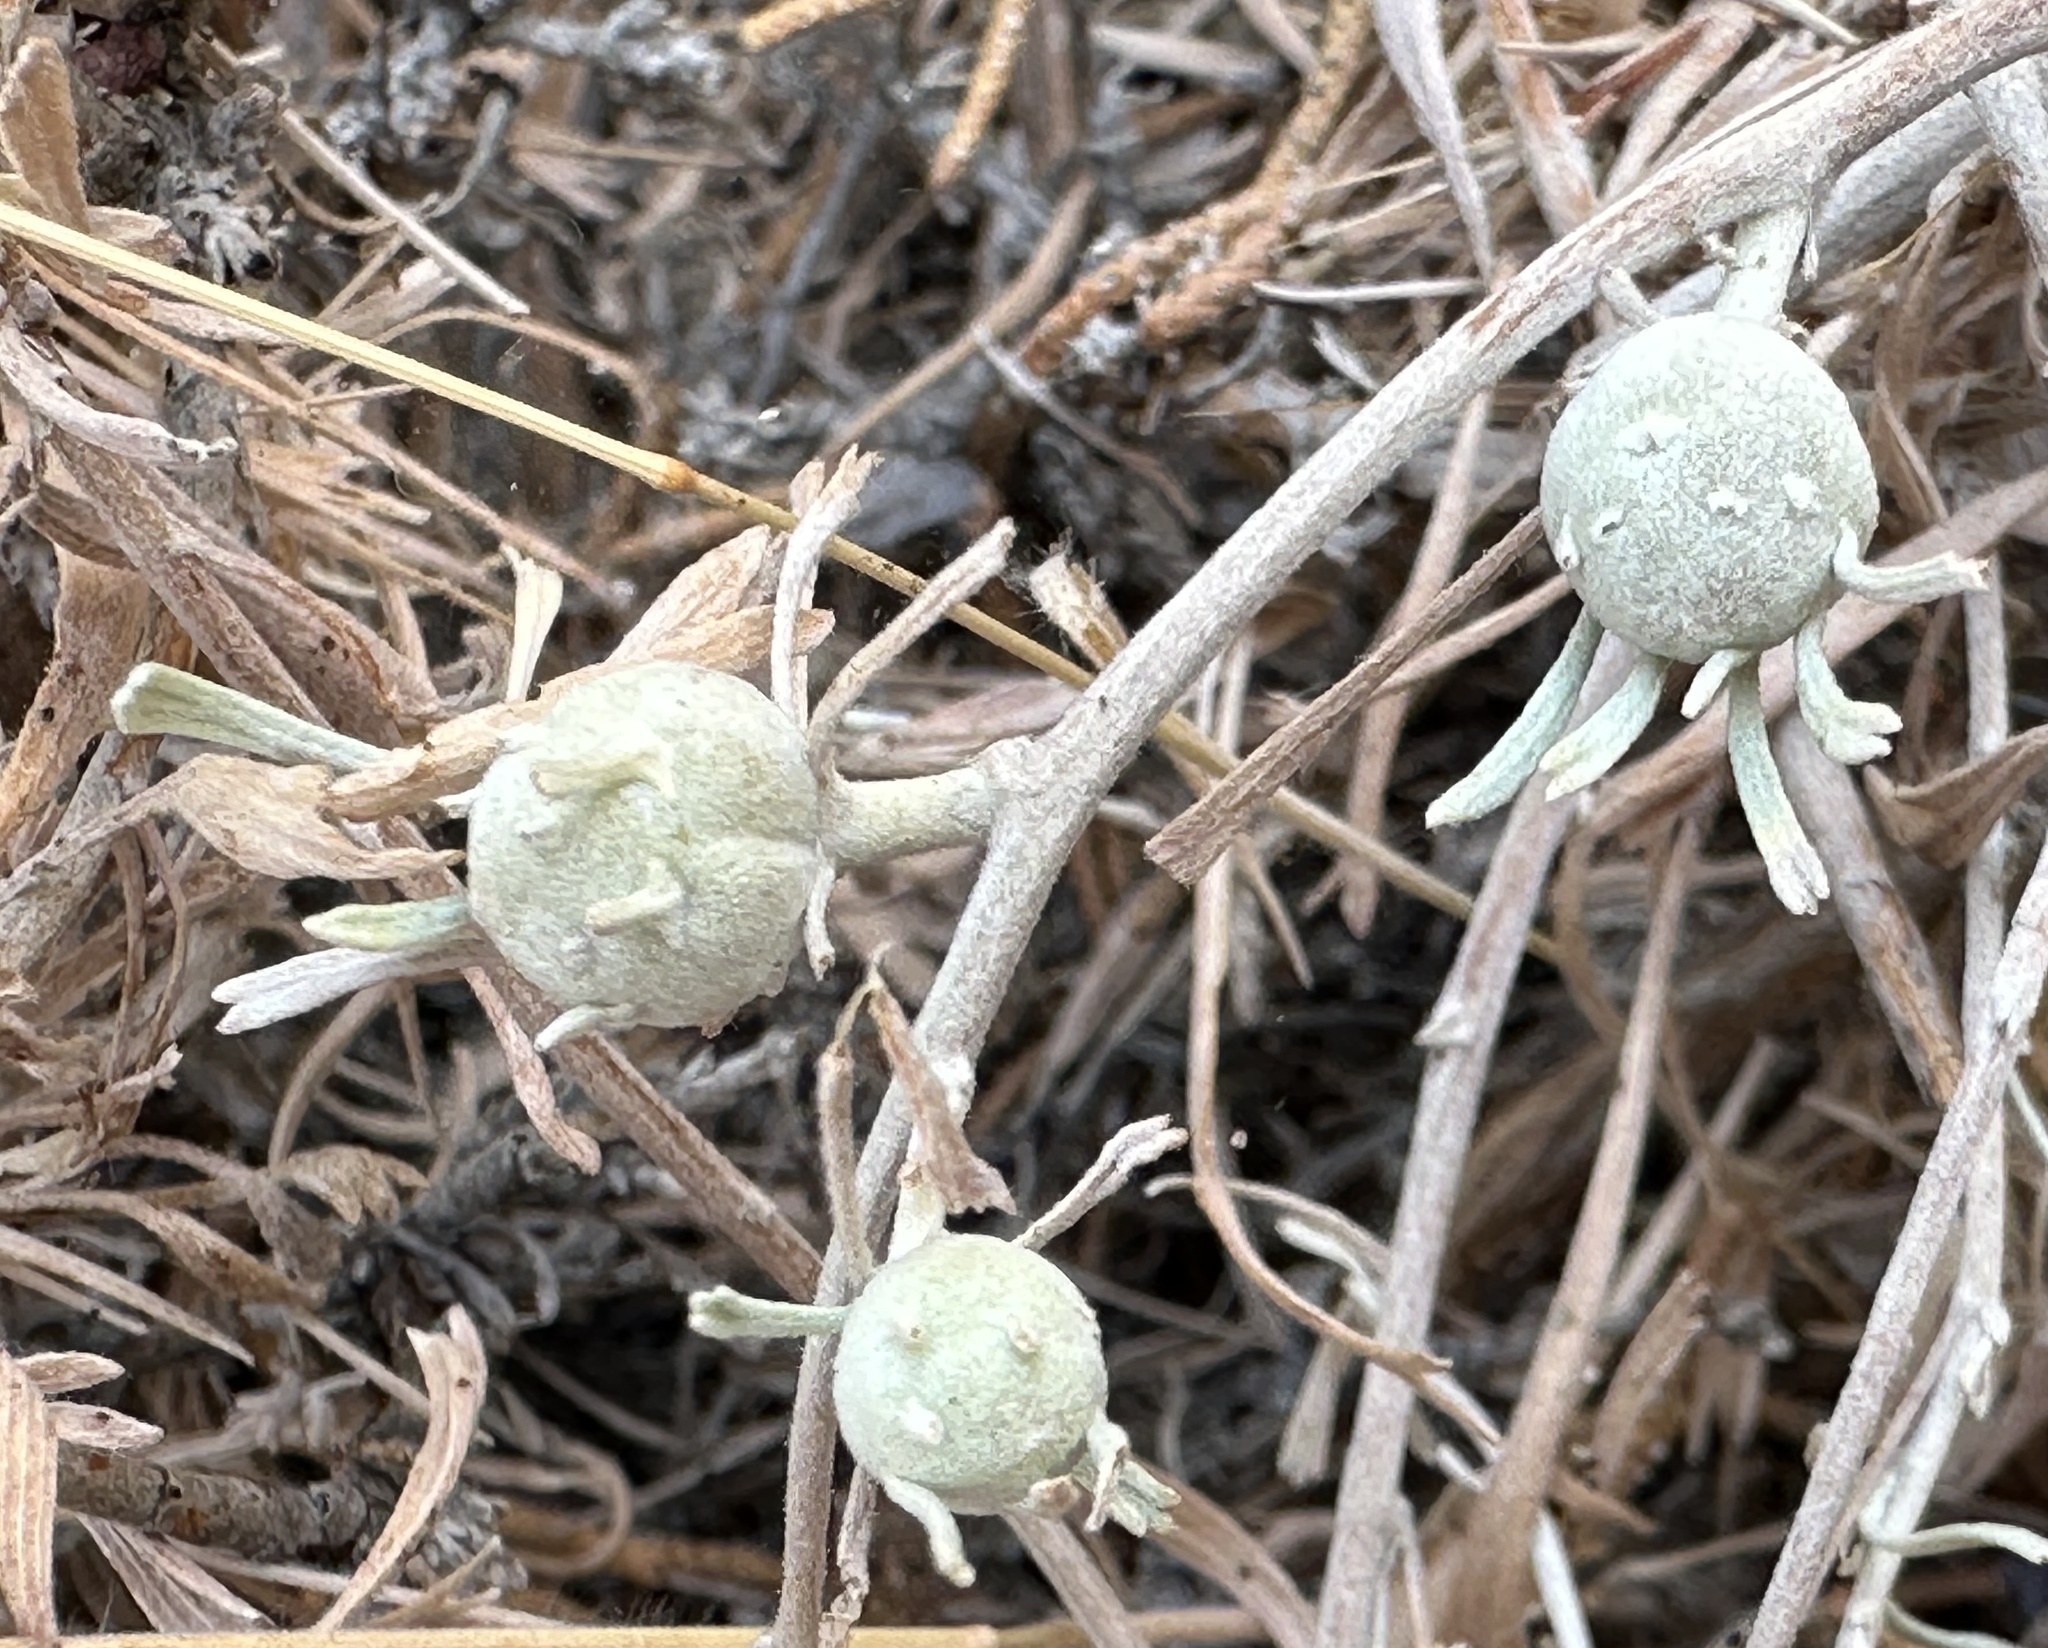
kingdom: Animalia
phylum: Arthropoda
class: Insecta
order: Diptera
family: Cecidomyiidae
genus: Rhopalomyia
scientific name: Rhopalomyia obovata
